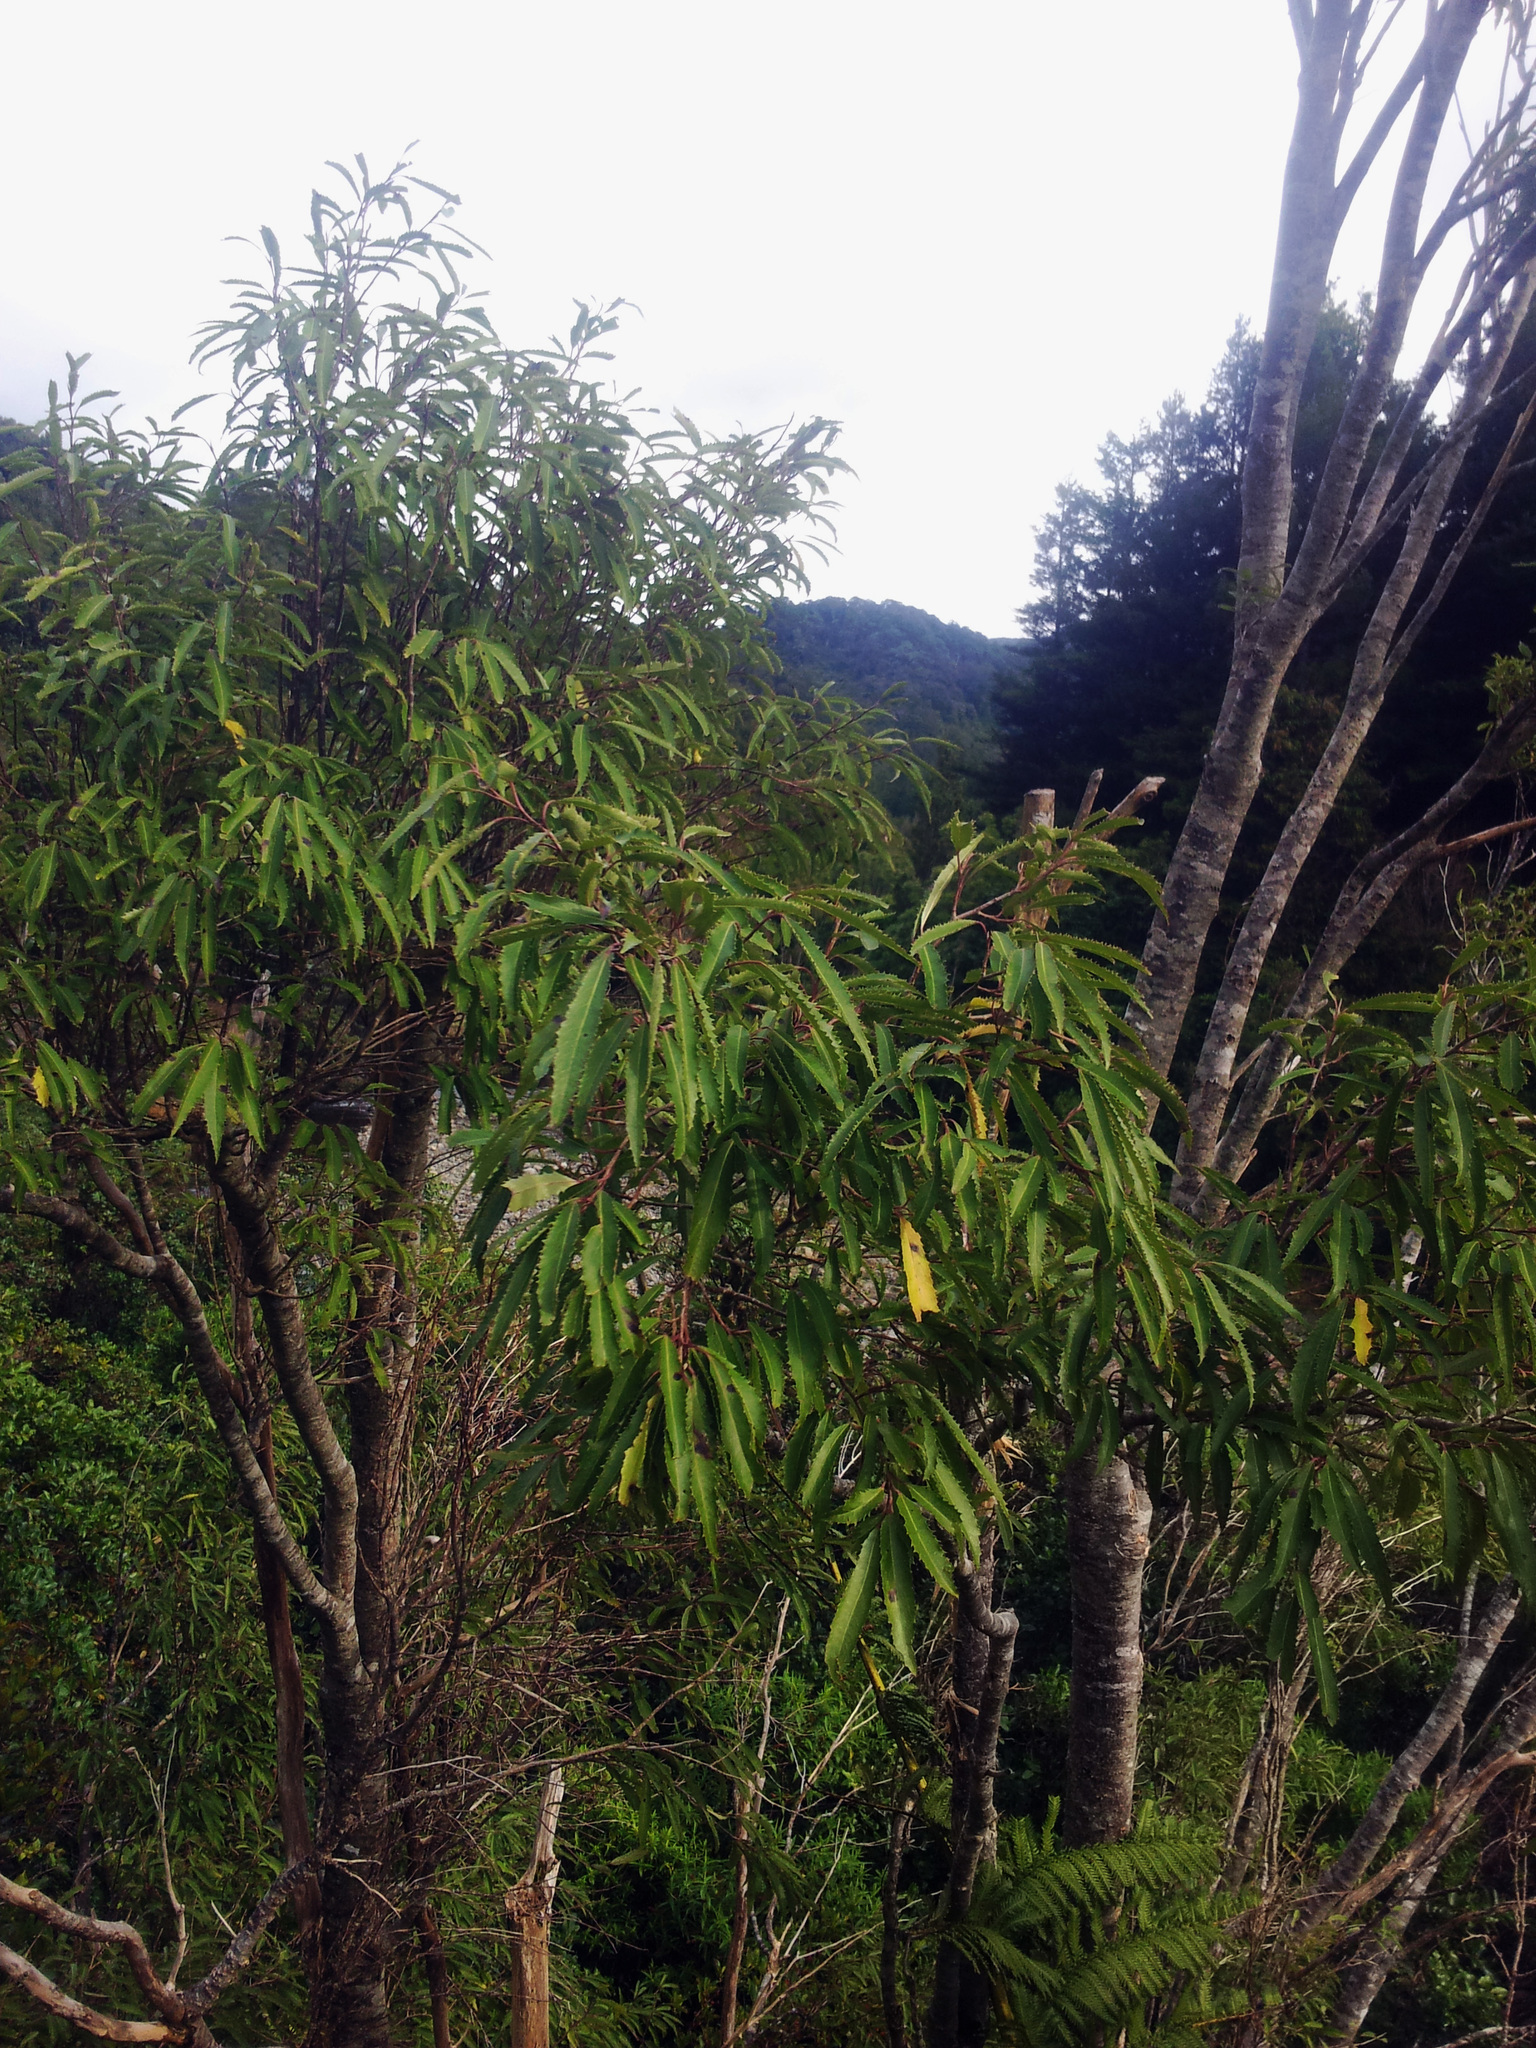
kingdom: Plantae
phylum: Tracheophyta
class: Magnoliopsida
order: Malvales
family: Malvaceae
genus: Hoheria
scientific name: Hoheria sexstylosa
